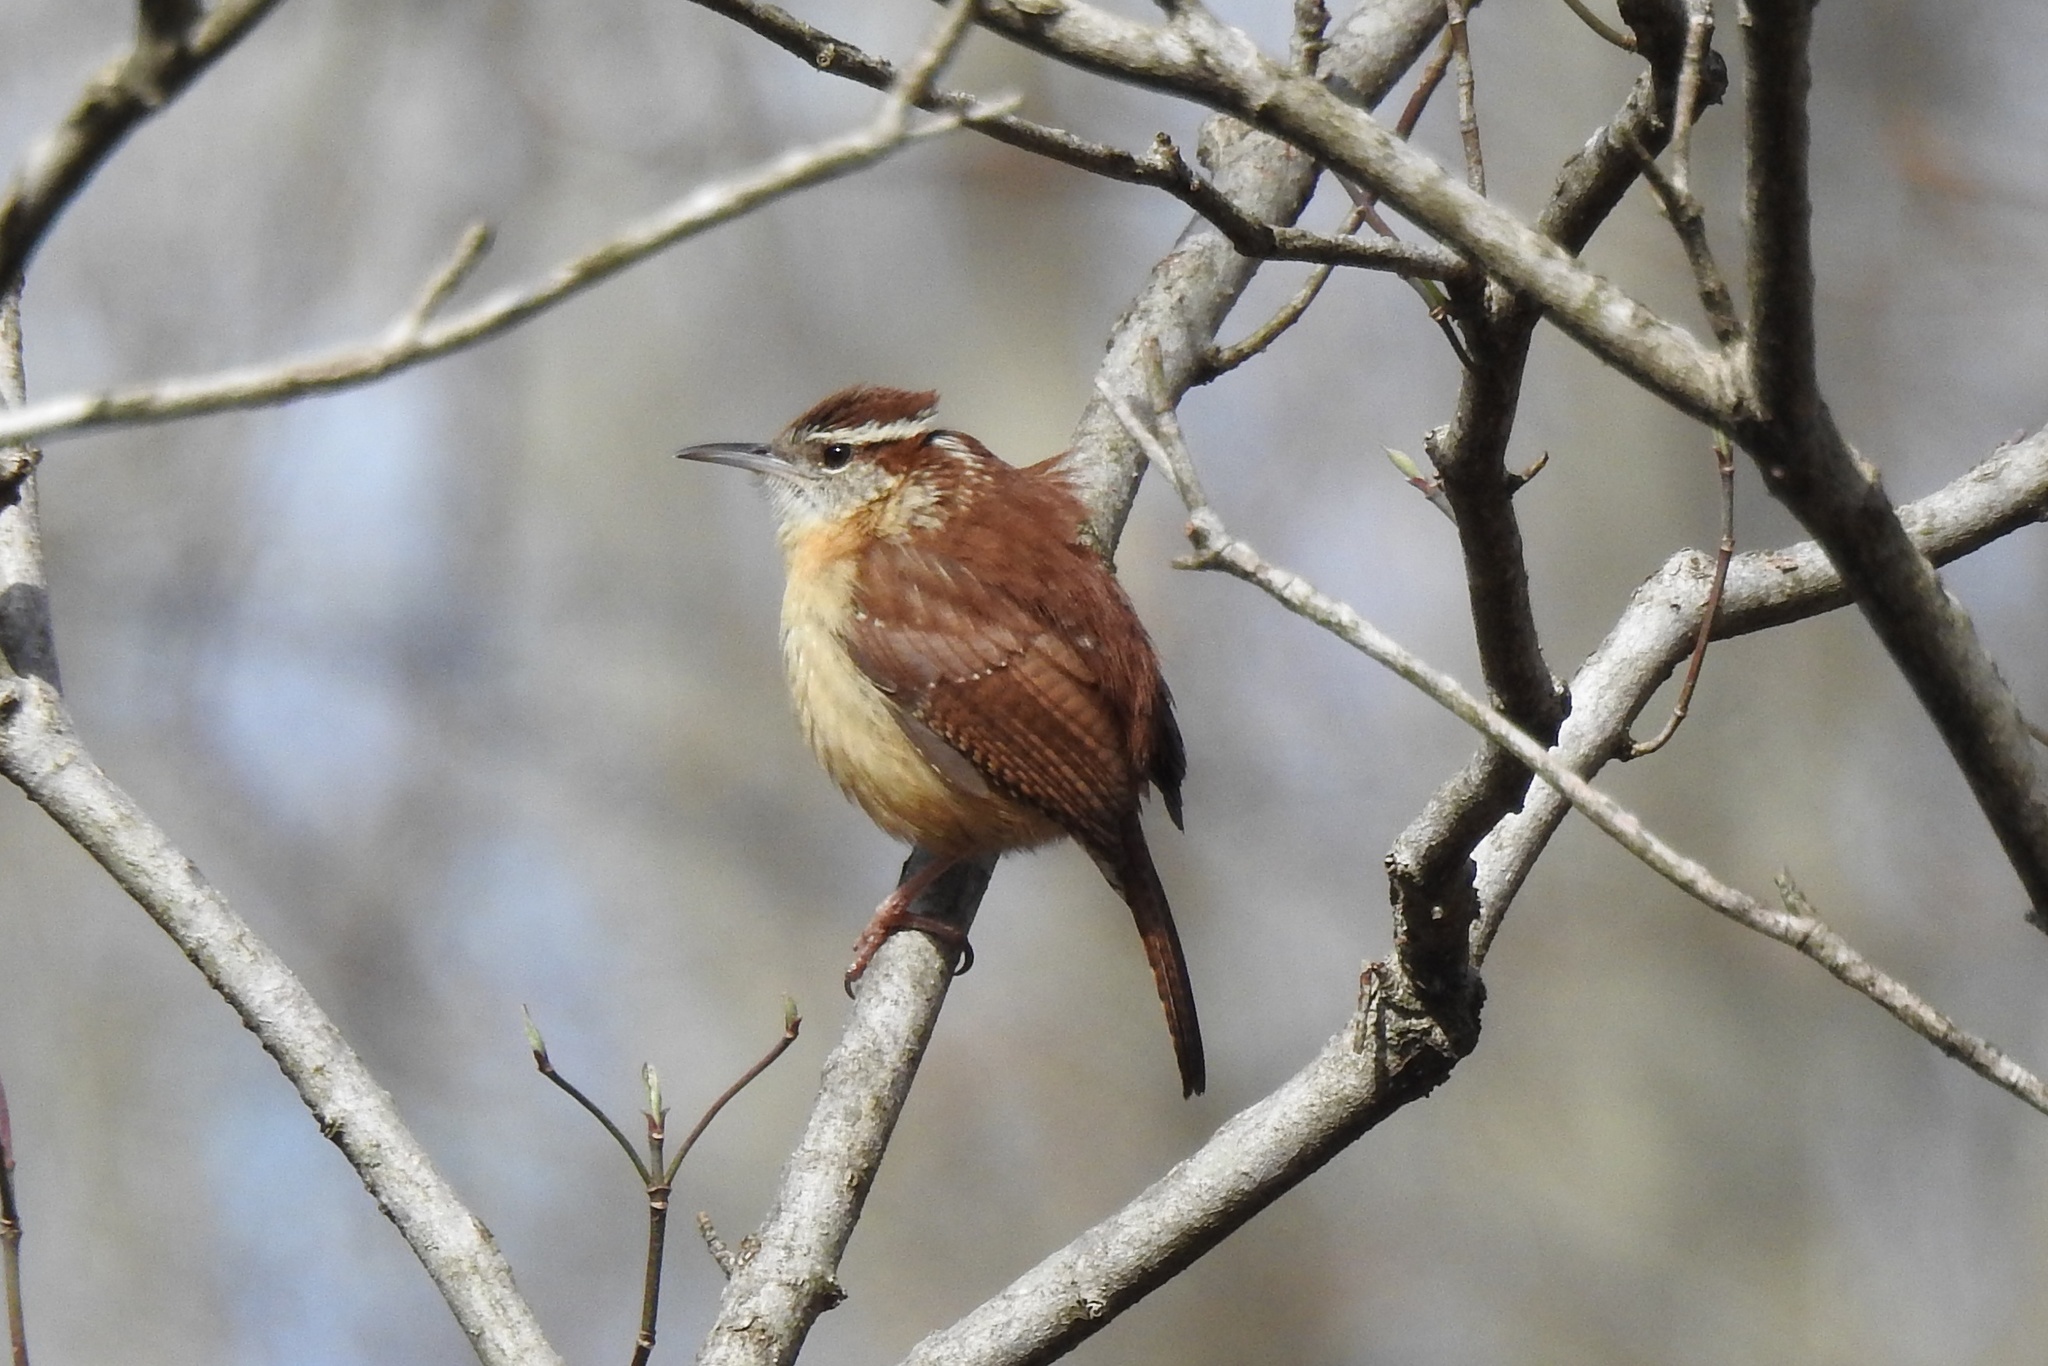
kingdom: Animalia
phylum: Chordata
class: Aves
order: Passeriformes
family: Troglodytidae
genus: Thryothorus
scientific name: Thryothorus ludovicianus
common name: Carolina wren
